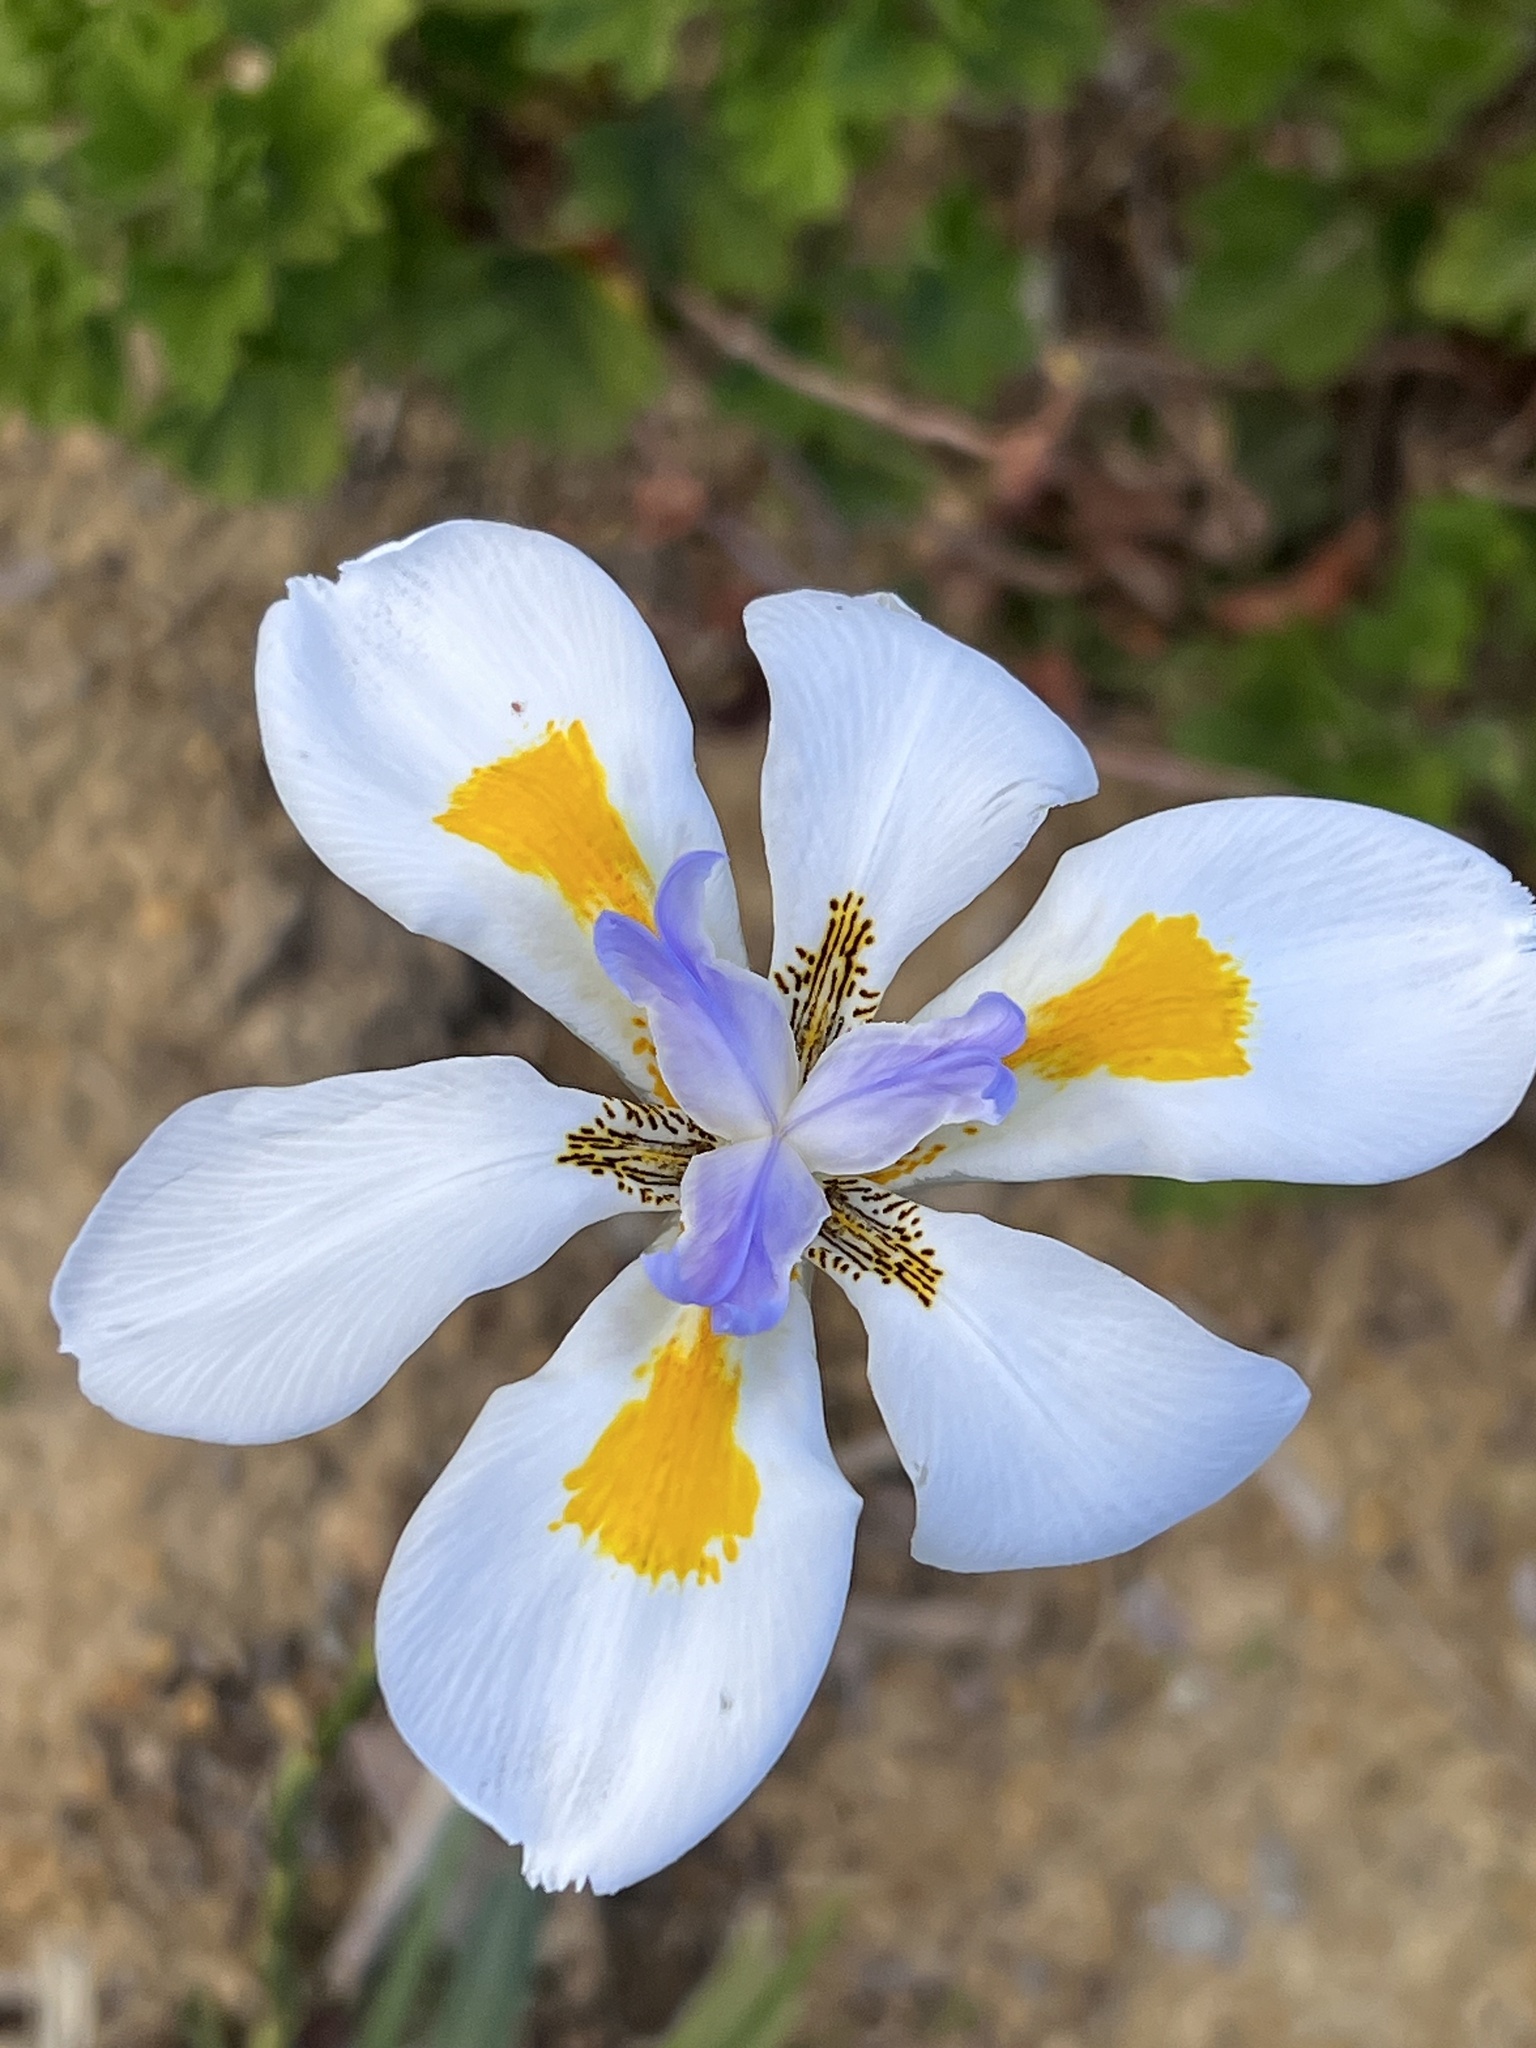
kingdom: Plantae
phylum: Tracheophyta
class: Liliopsida
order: Asparagales
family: Iridaceae
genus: Dietes
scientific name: Dietes grandiflora
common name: Wild iris
